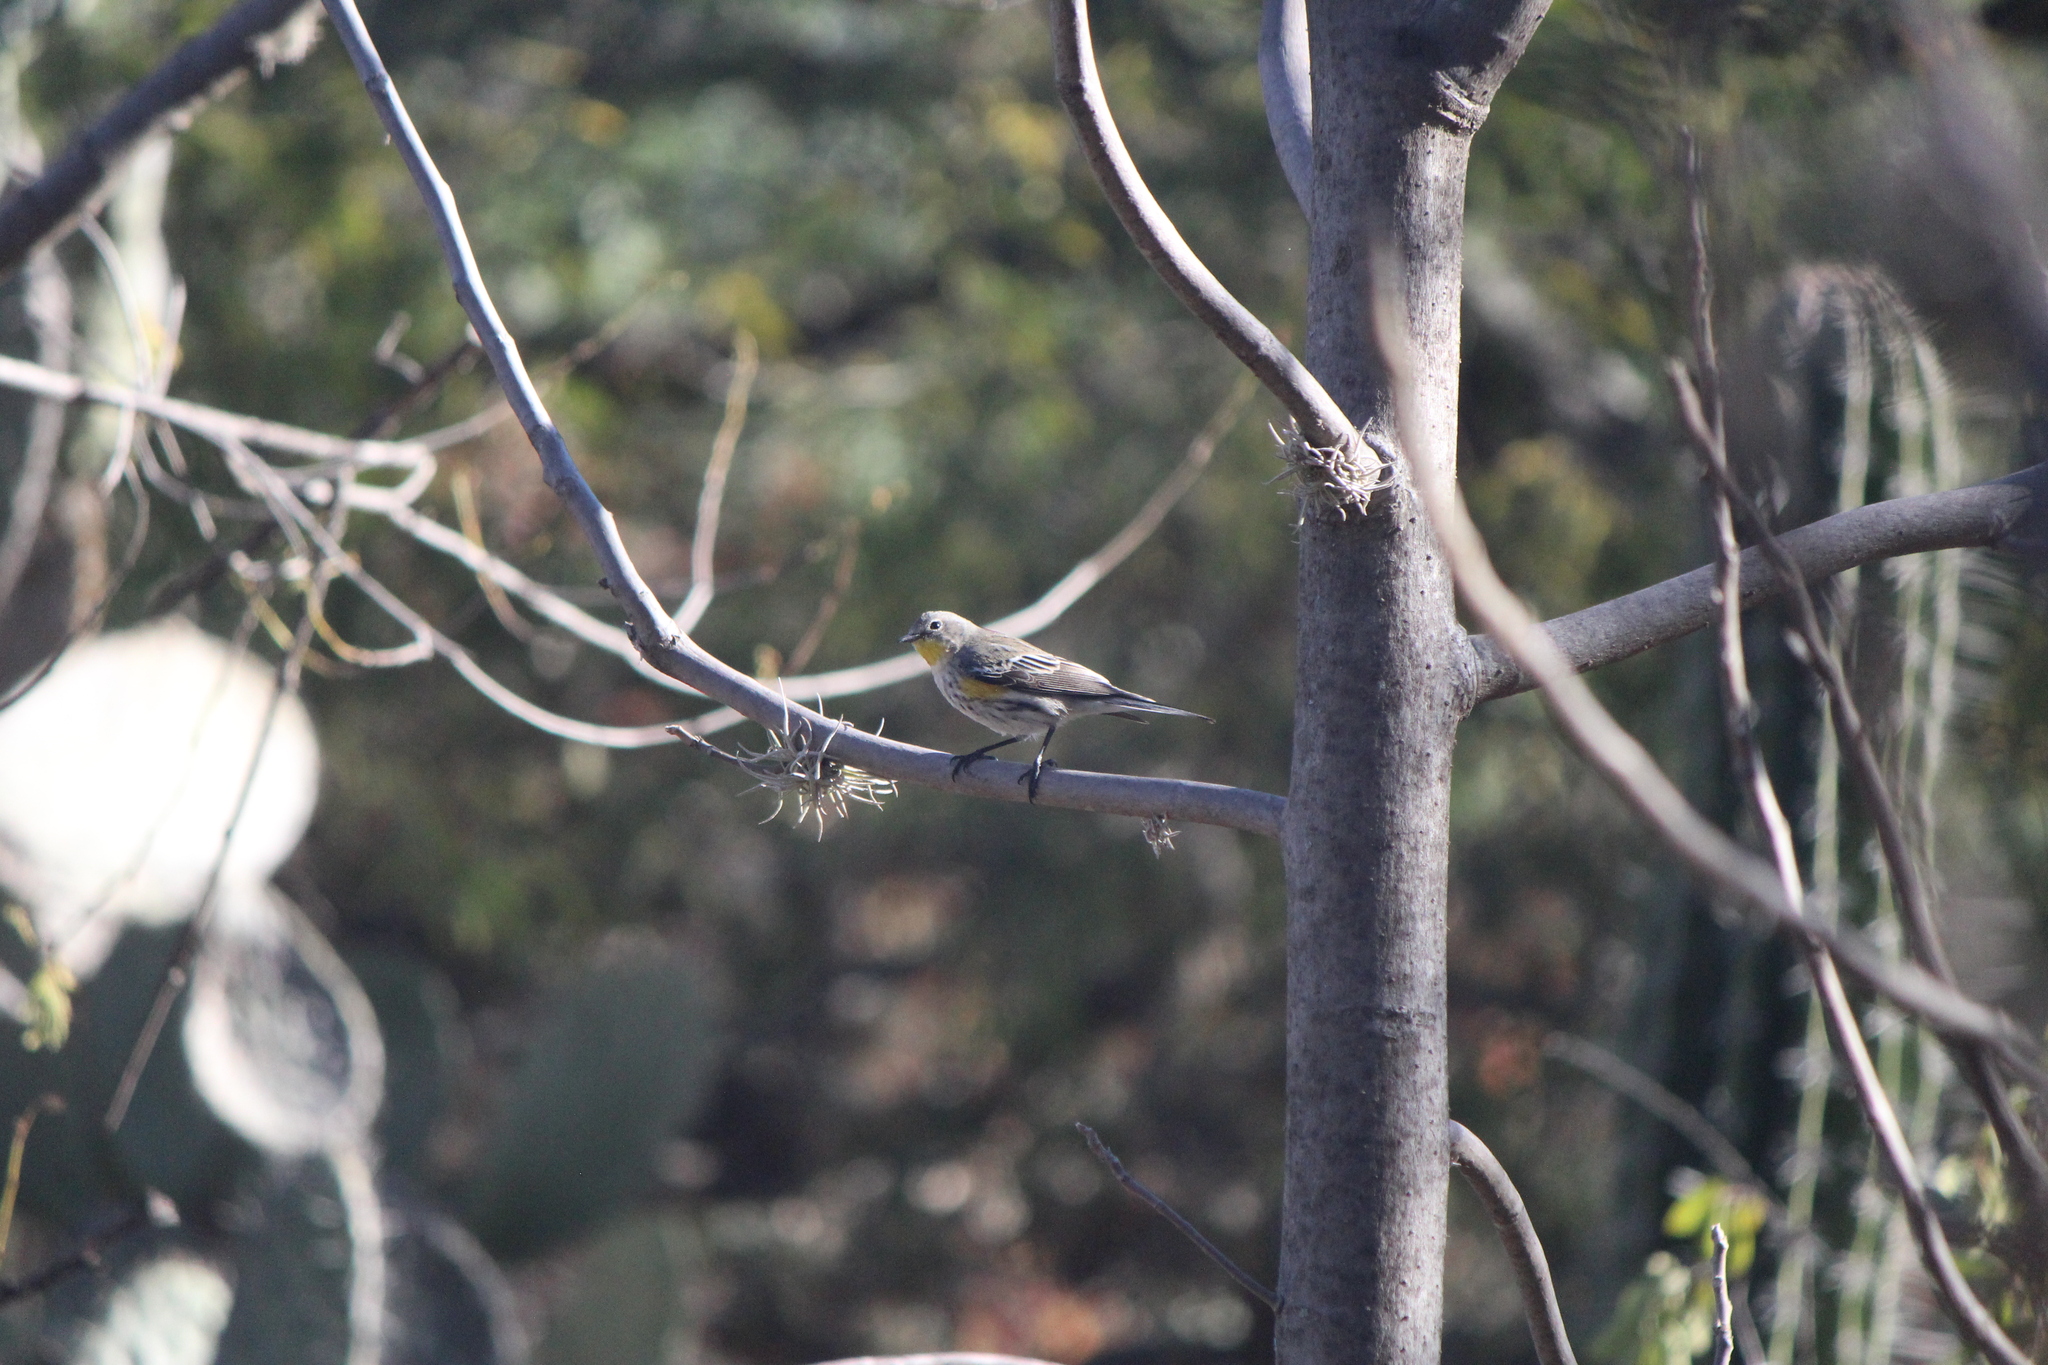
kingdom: Animalia
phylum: Chordata
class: Aves
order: Passeriformes
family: Parulidae
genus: Setophaga
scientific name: Setophaga coronata
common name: Myrtle warbler
